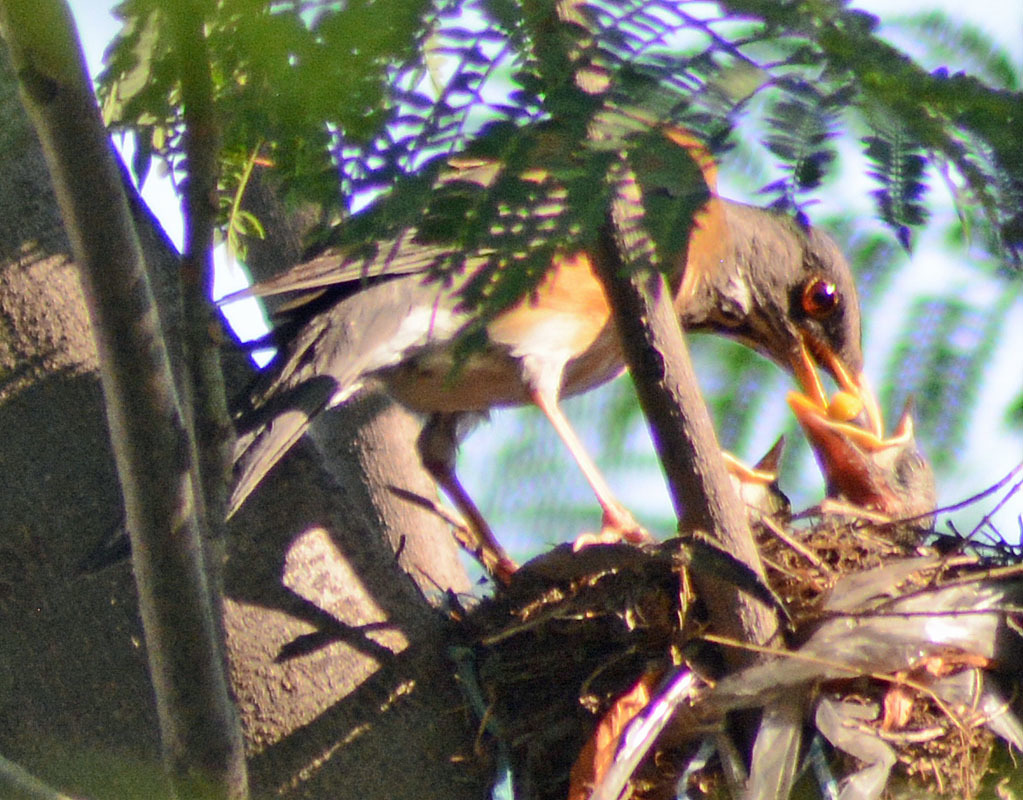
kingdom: Animalia
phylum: Chordata
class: Aves
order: Passeriformes
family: Turdidae
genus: Turdus
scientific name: Turdus rufopalliatus
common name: Rufous-backed robin
